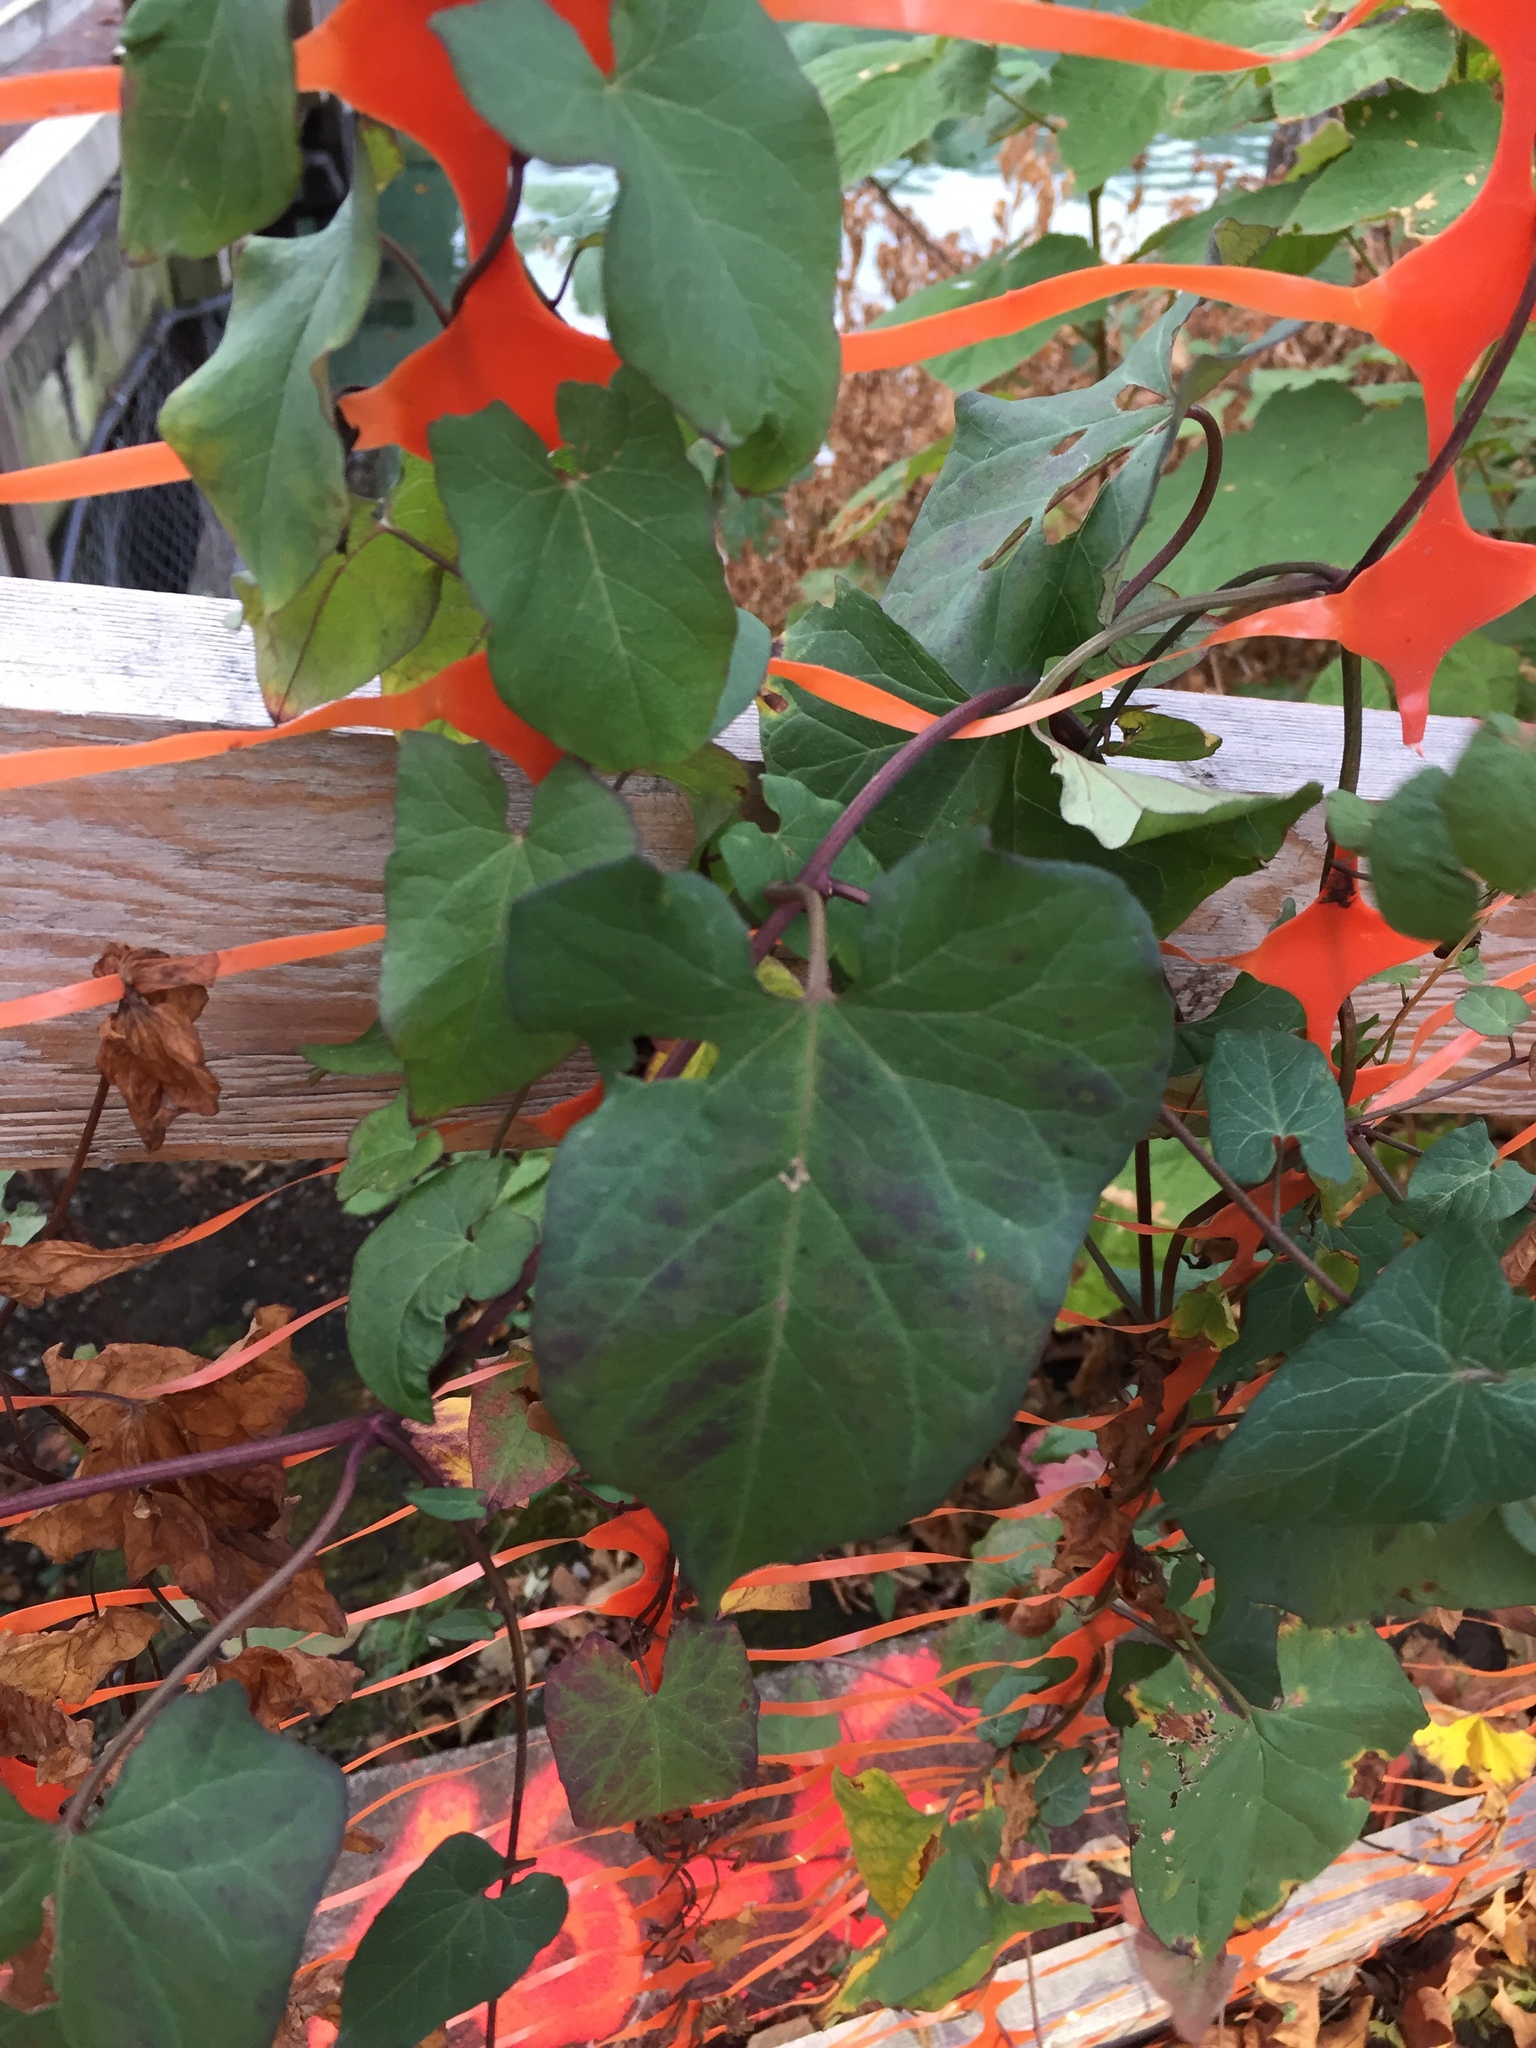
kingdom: Plantae
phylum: Tracheophyta
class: Magnoliopsida
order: Solanales
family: Convolvulaceae
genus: Calystegia
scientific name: Calystegia sepium
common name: Hedge bindweed
